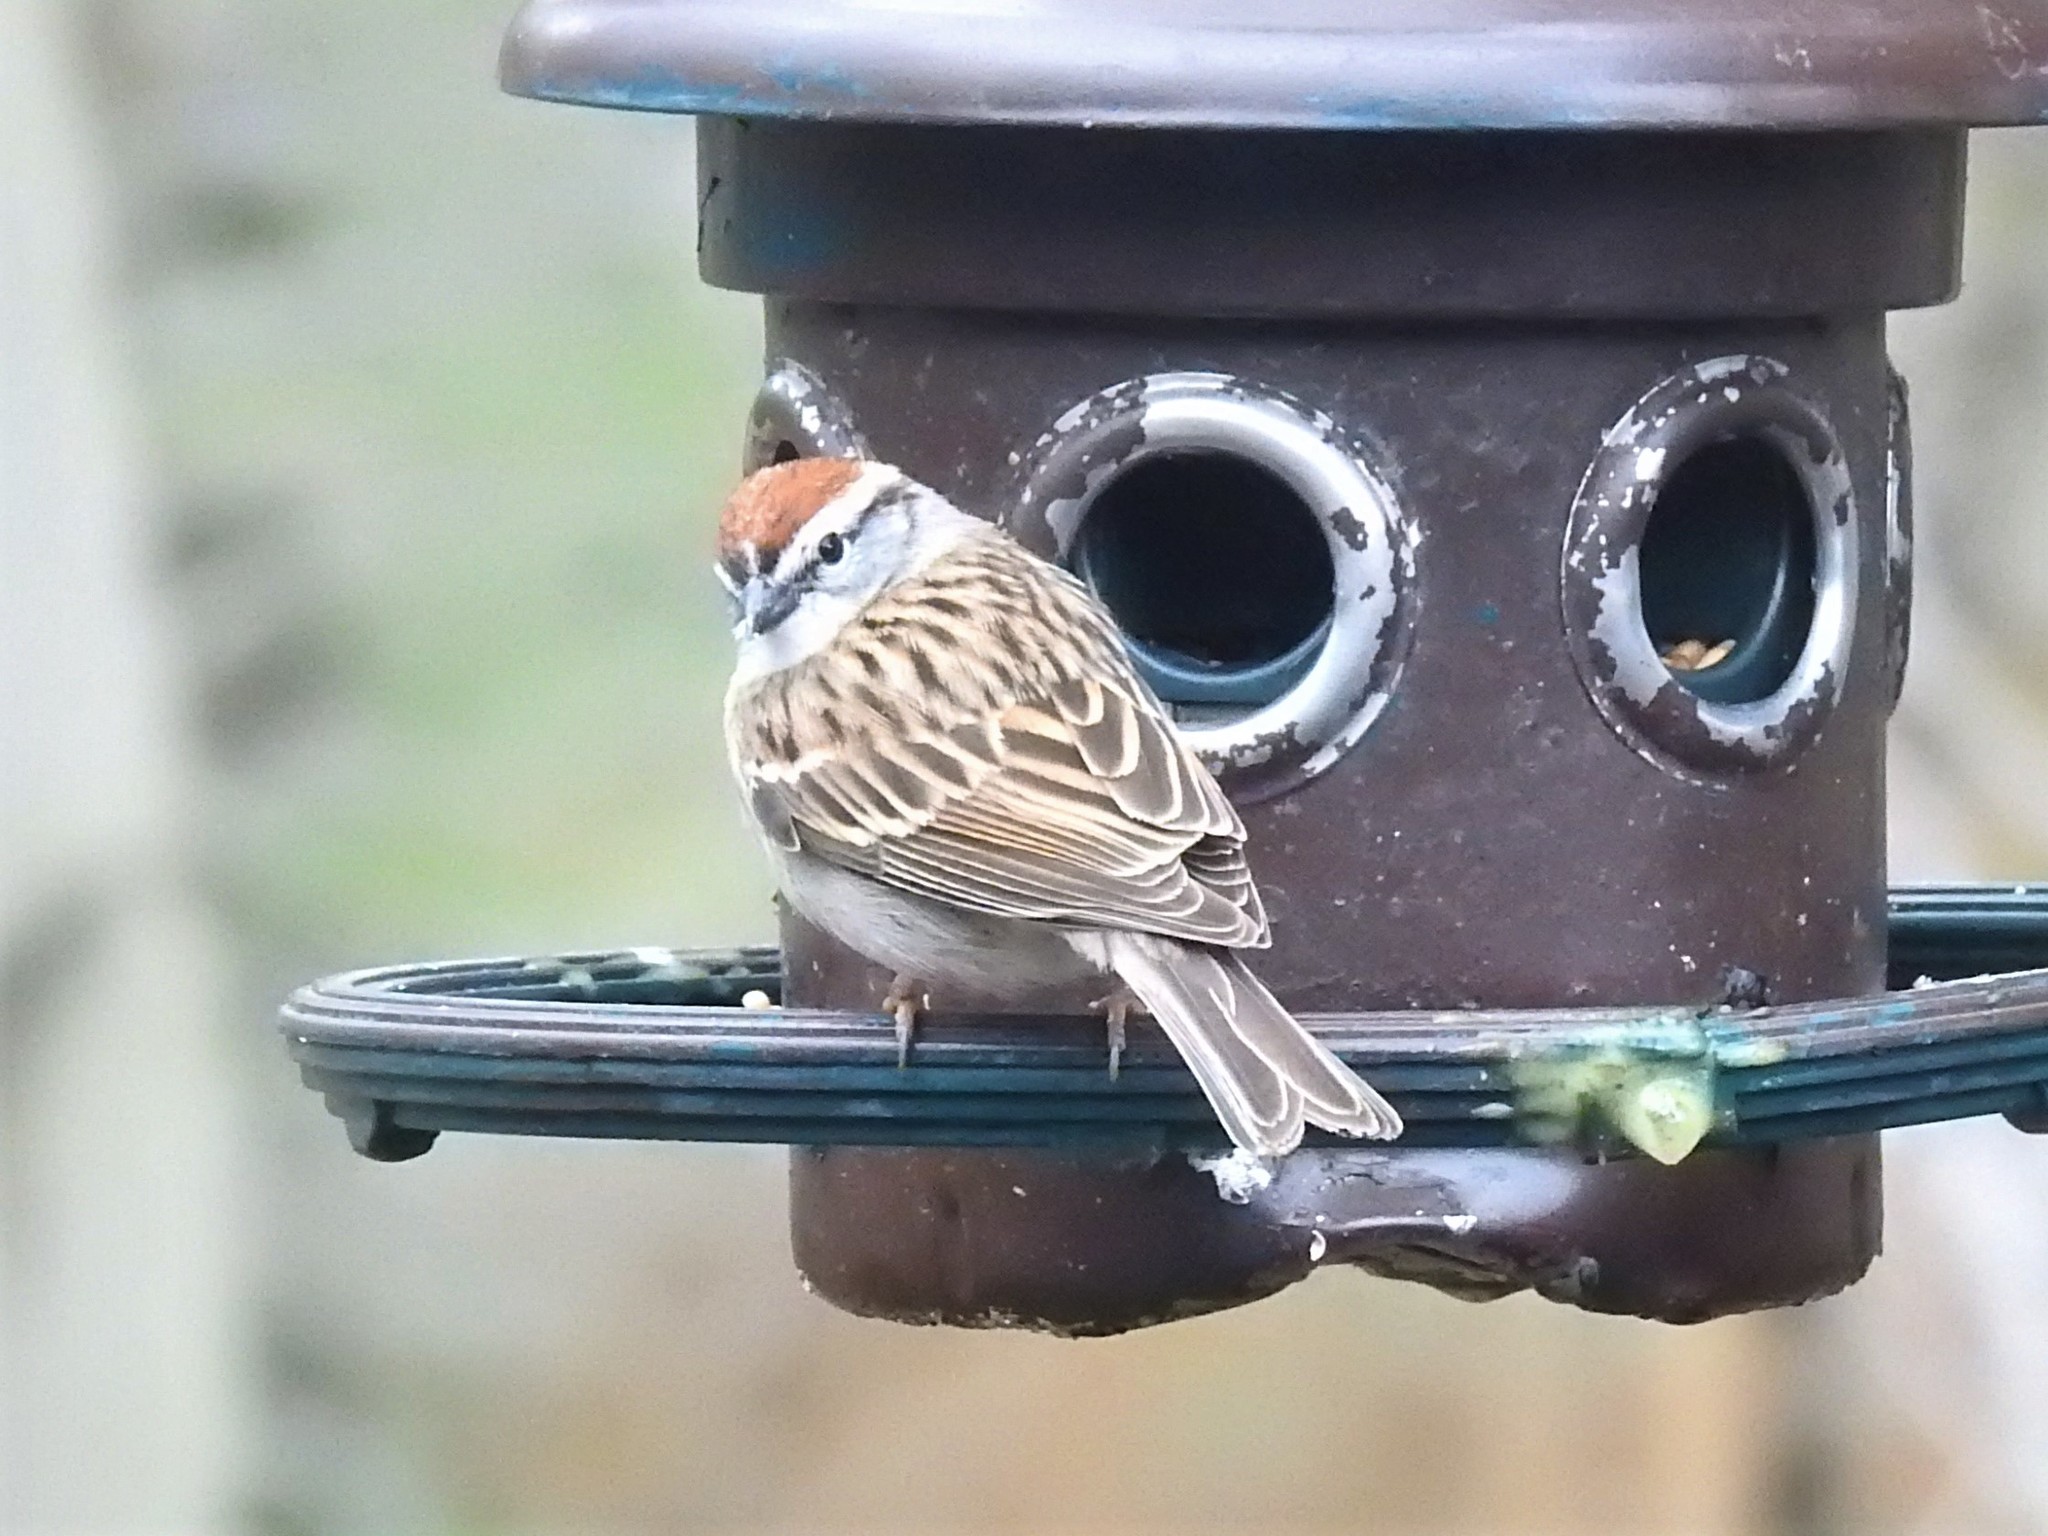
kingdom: Animalia
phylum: Chordata
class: Aves
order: Passeriformes
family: Passerellidae
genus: Spizella
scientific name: Spizella passerina
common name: Chipping sparrow
